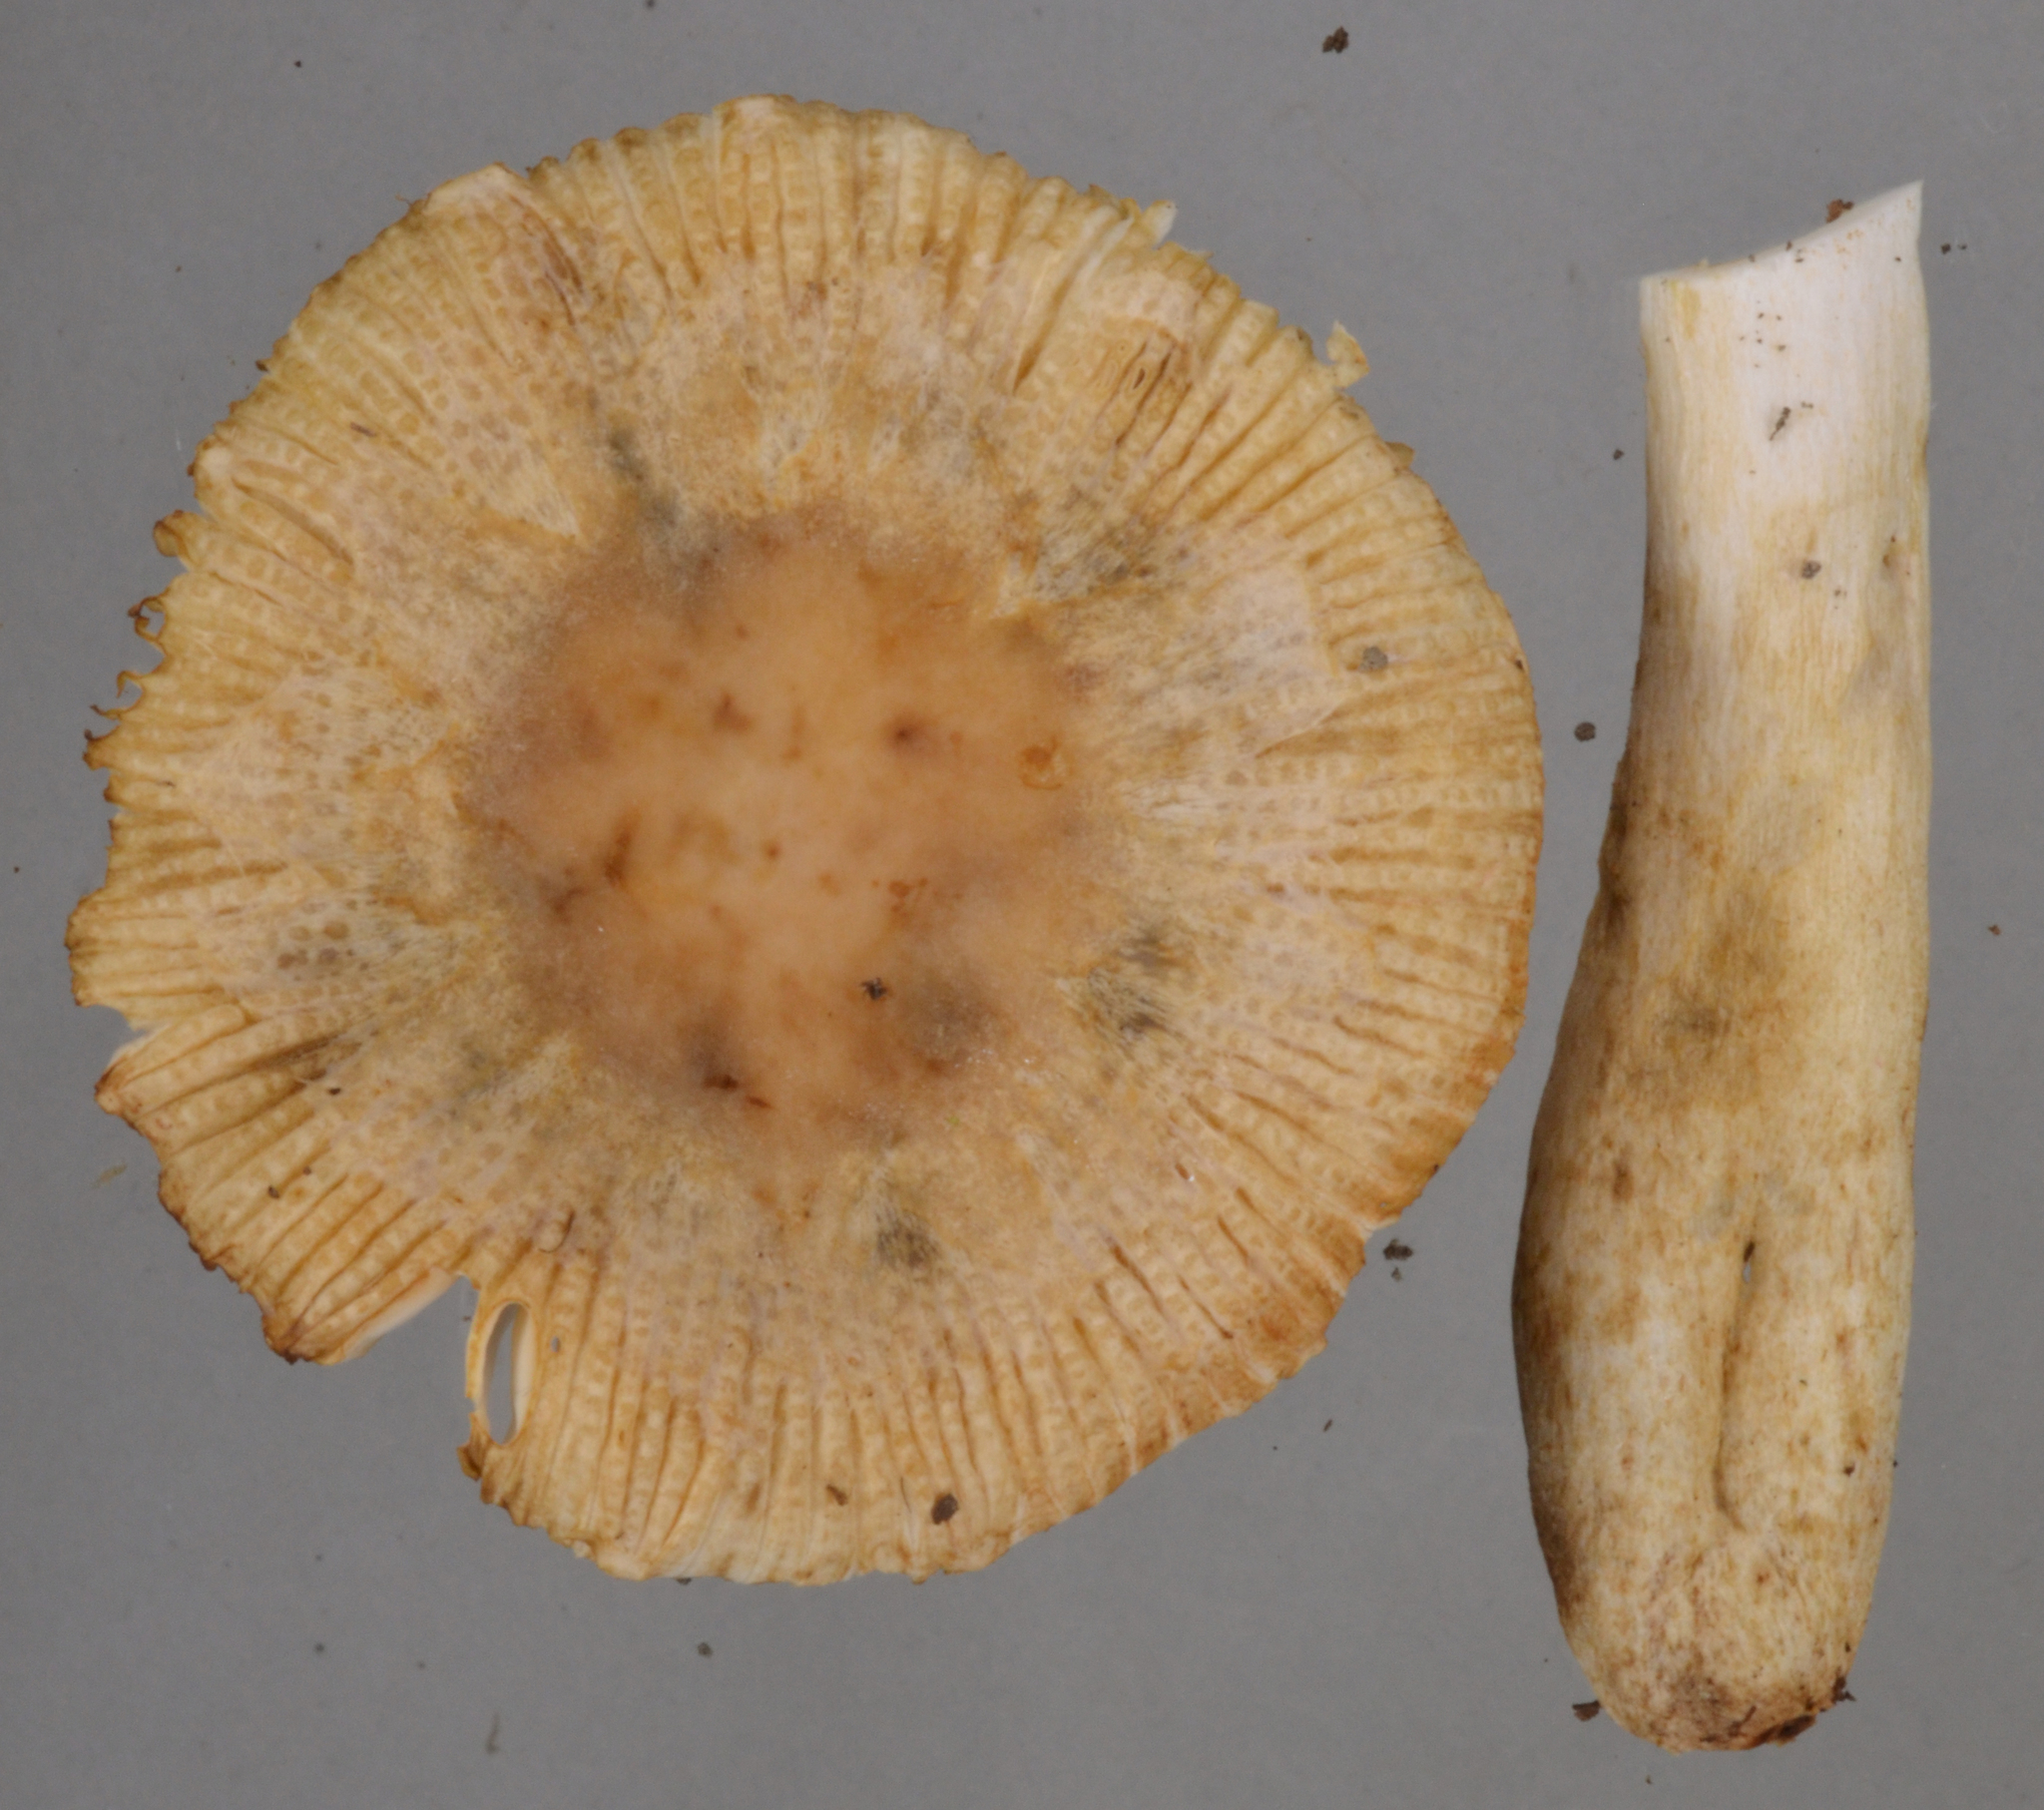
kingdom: Fungi
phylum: Basidiomycota
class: Agaricomycetes
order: Russulales
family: Russulaceae
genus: Russula
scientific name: Russula acrolamellata
